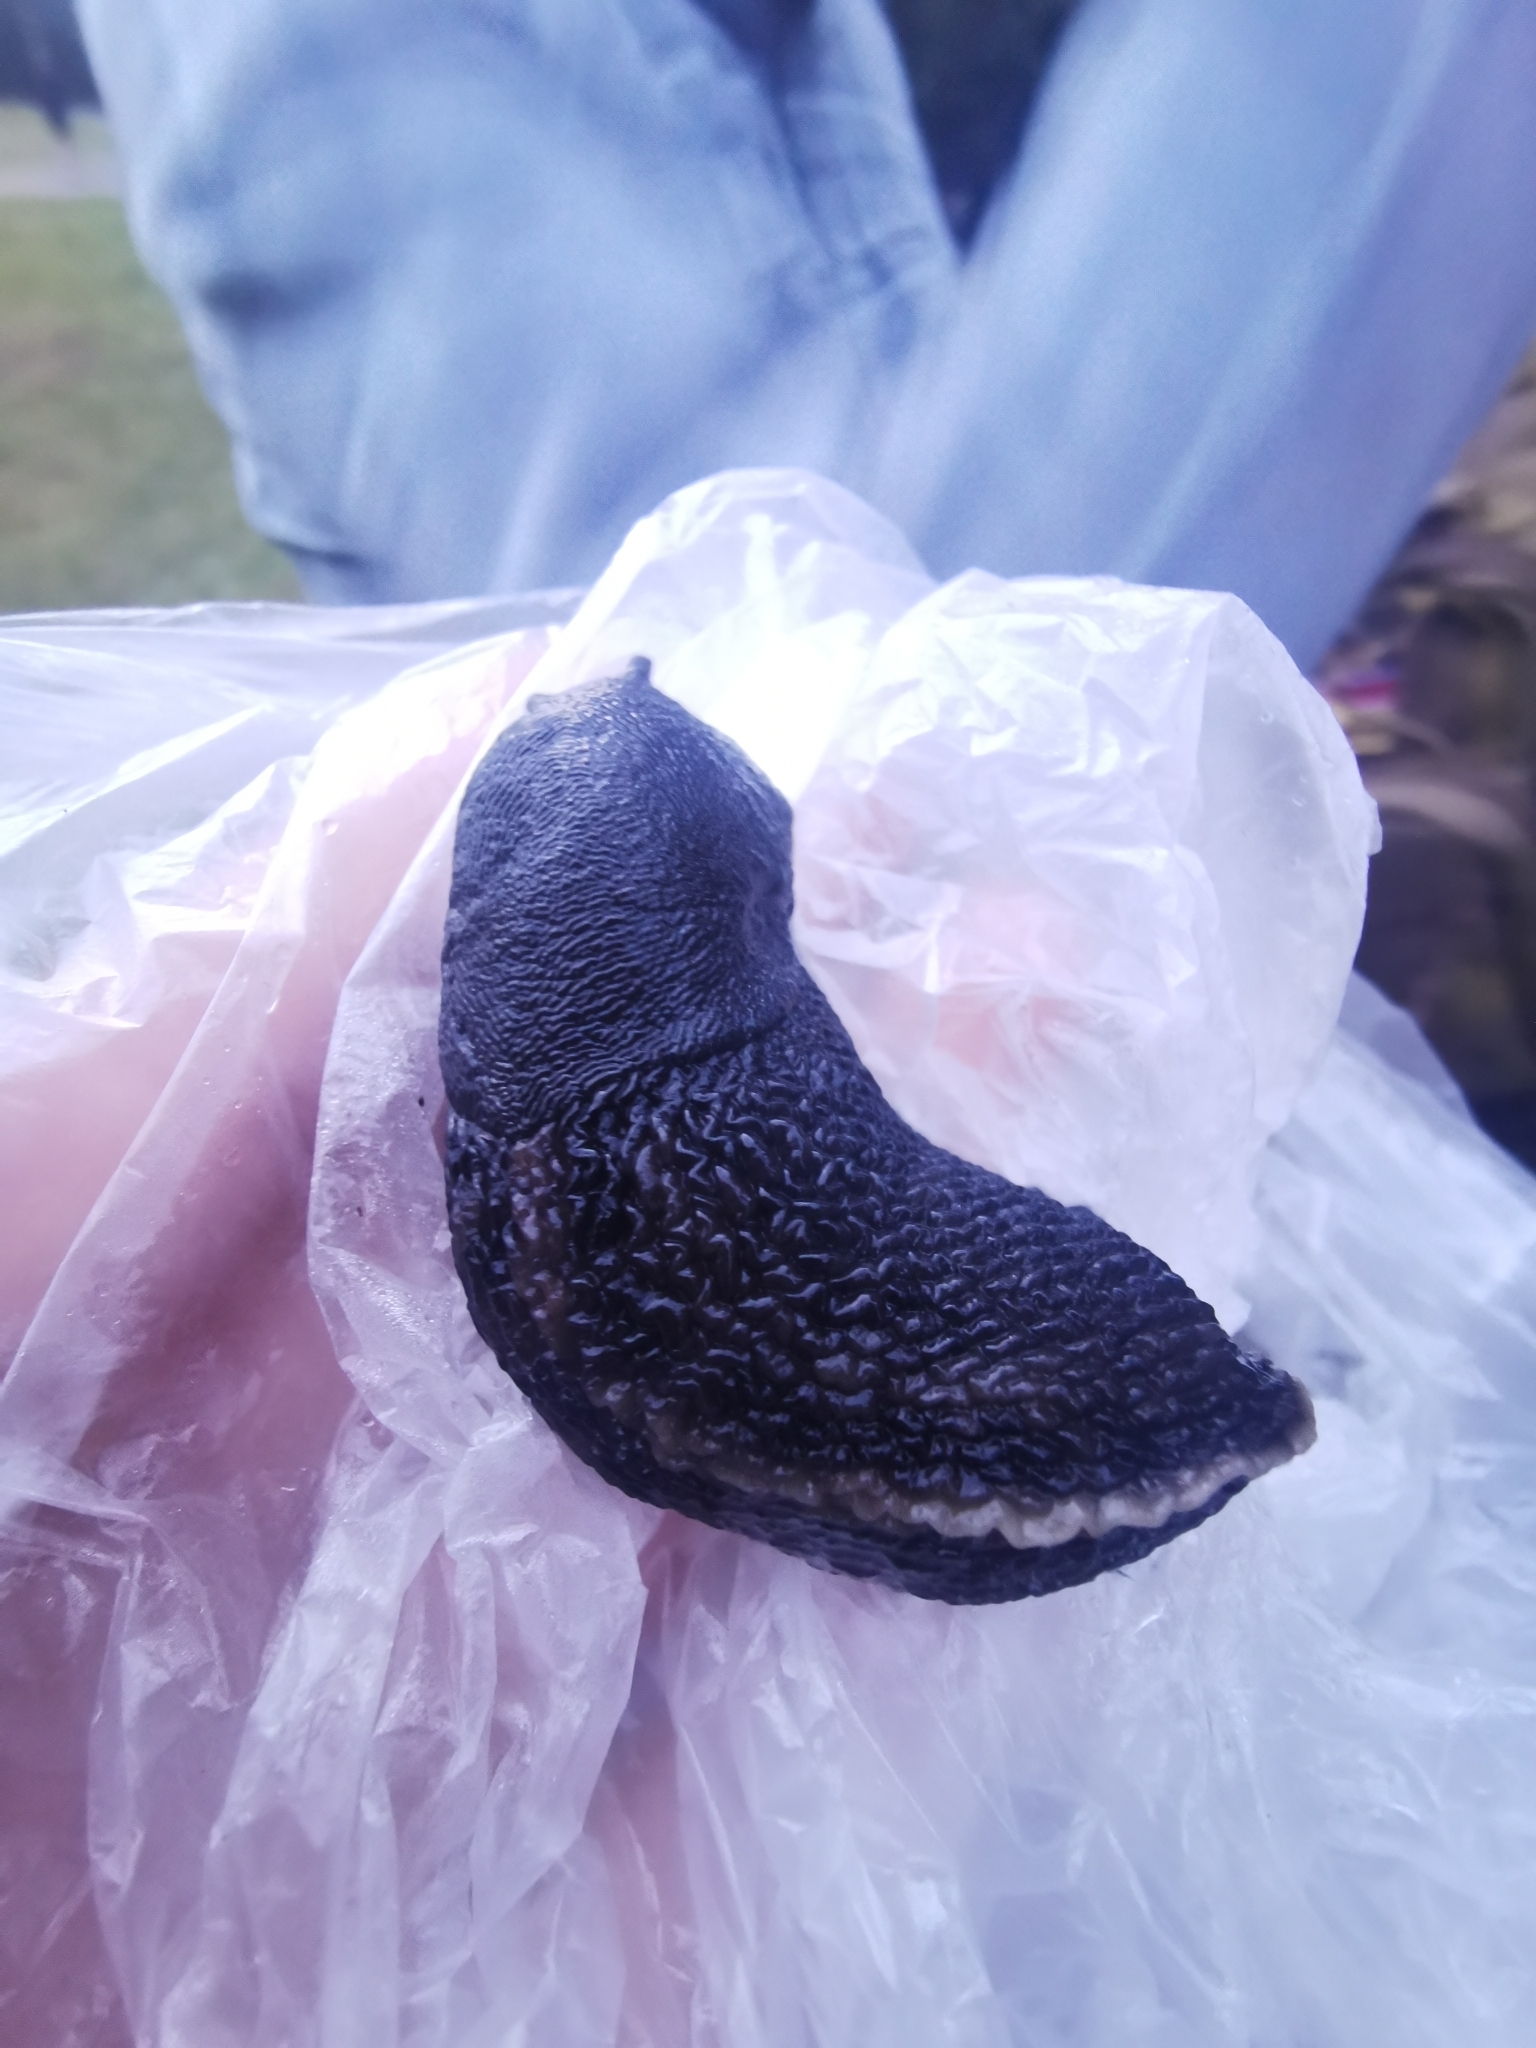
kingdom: Animalia
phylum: Mollusca
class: Gastropoda
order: Stylommatophora
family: Limacidae
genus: Limax
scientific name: Limax cinereoniger
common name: Ash-black slug
